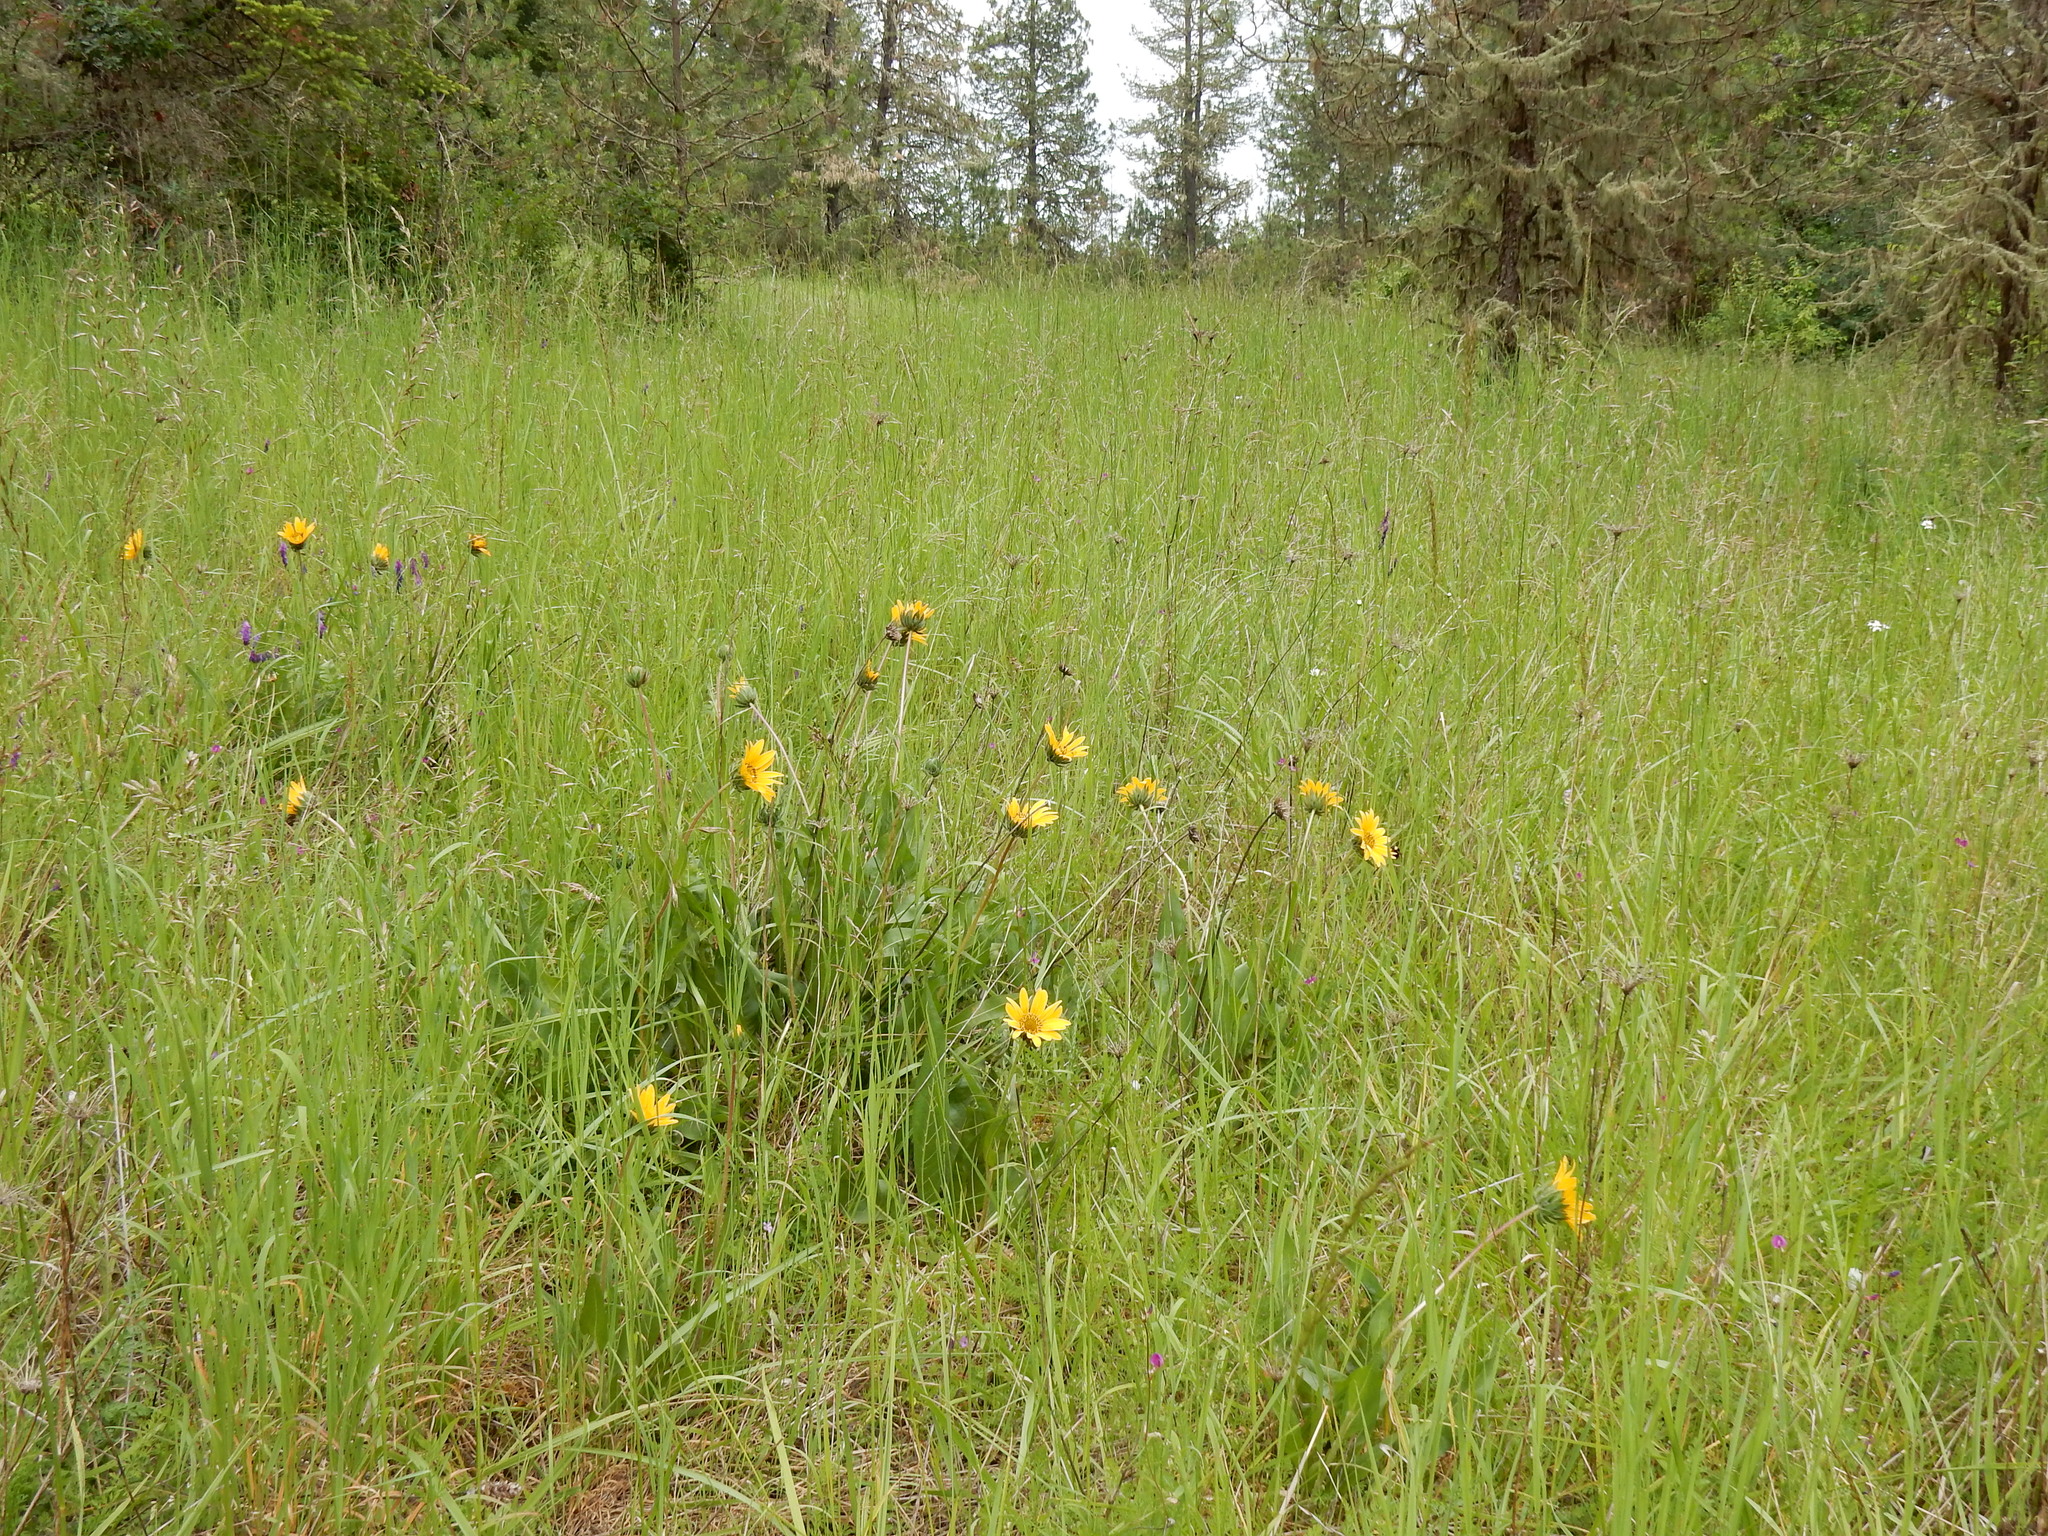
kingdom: Plantae
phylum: Tracheophyta
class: Magnoliopsida
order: Asterales
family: Asteraceae
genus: Wyethia
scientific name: Wyethia angustifolia
